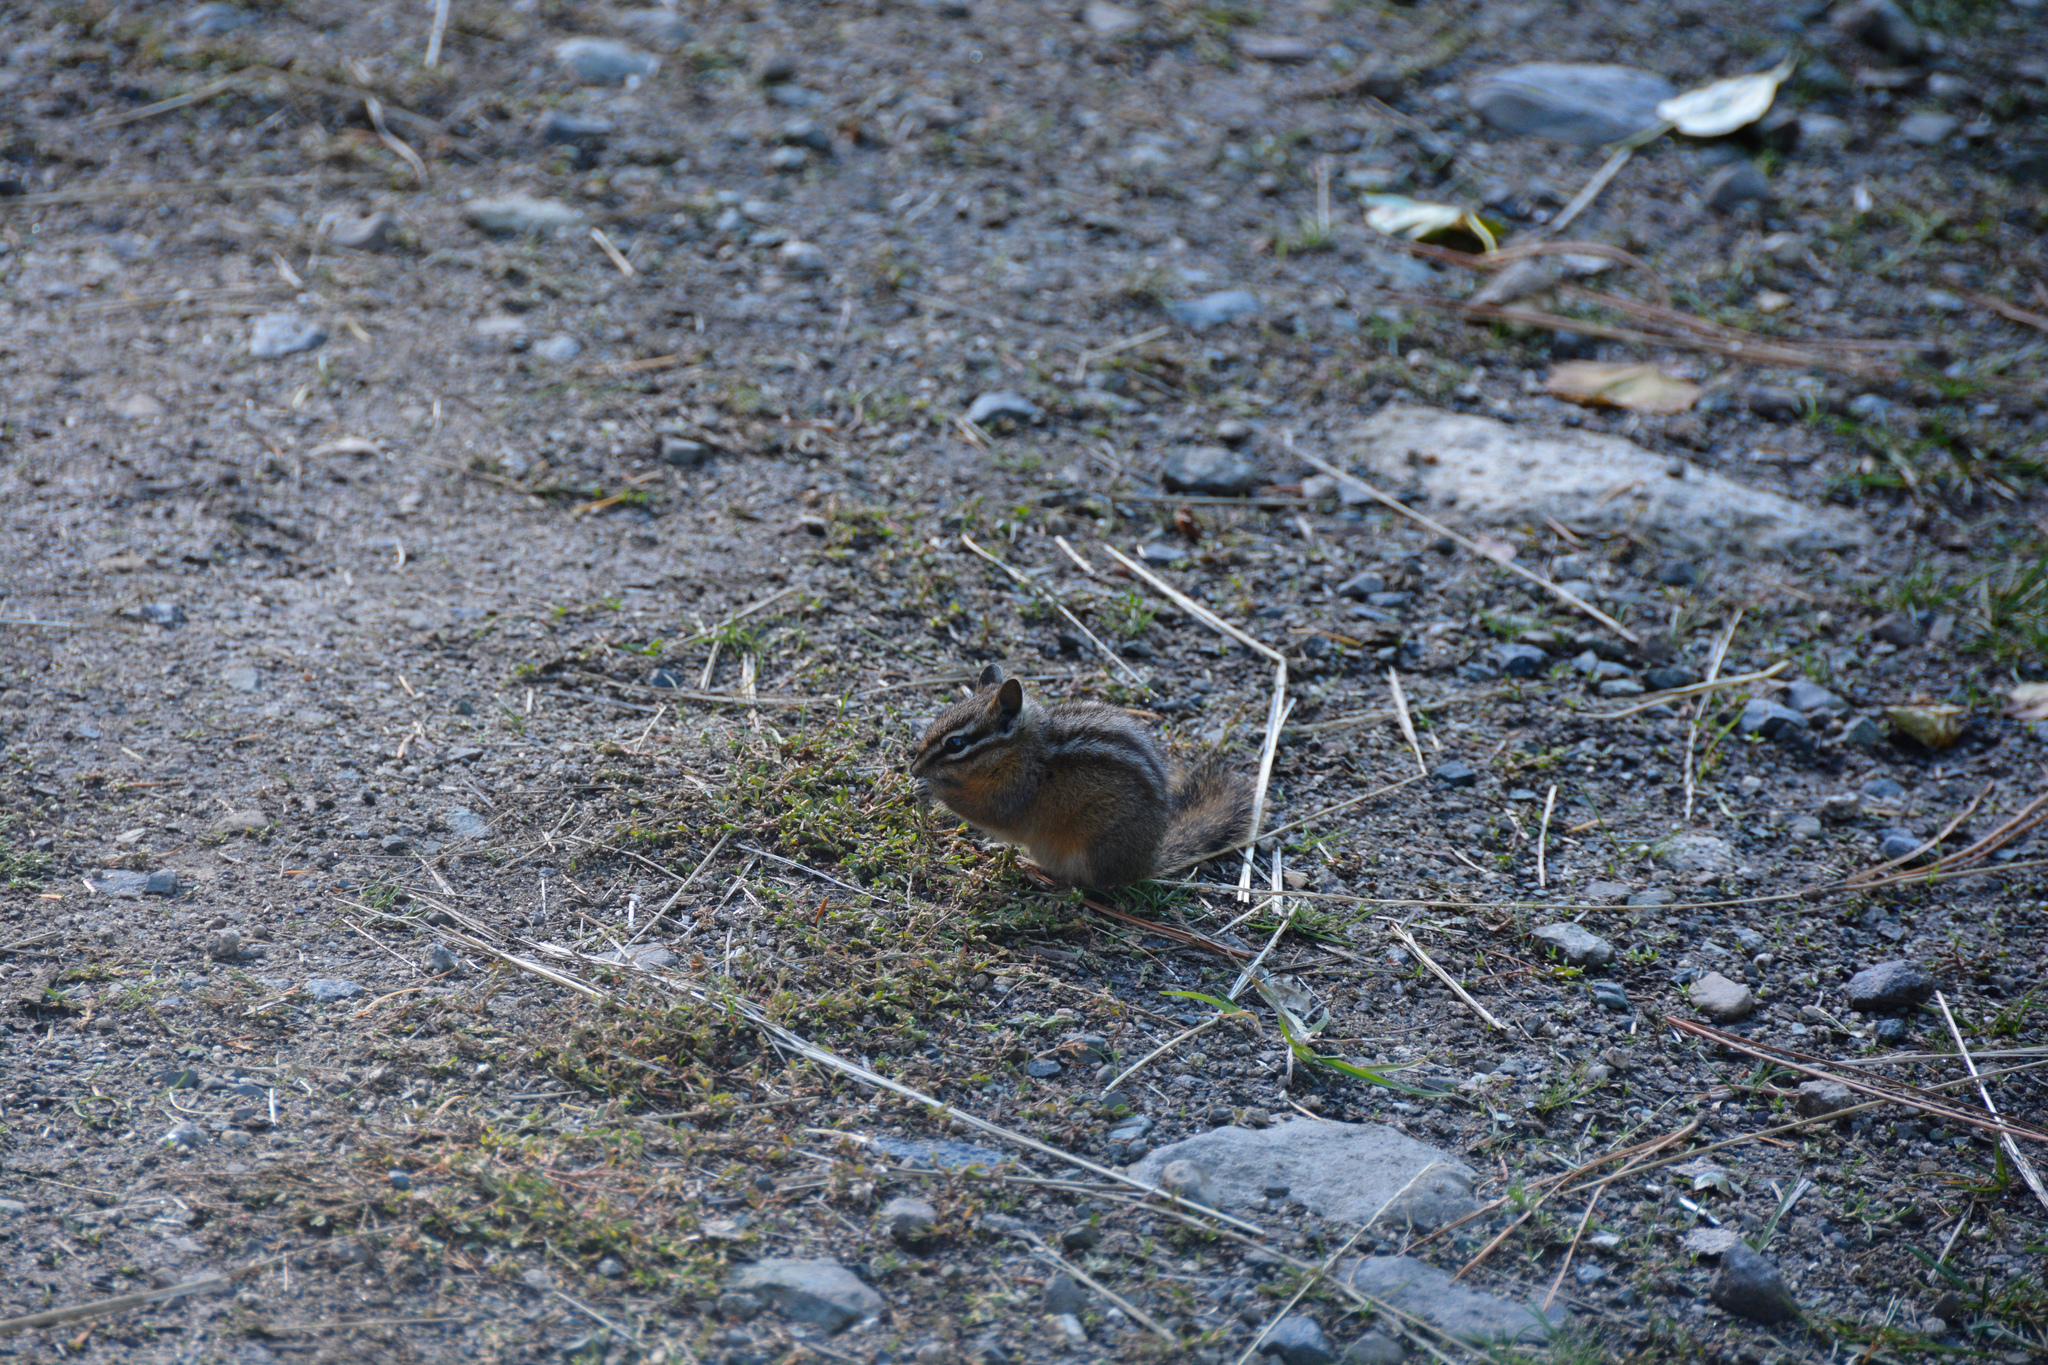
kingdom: Animalia
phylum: Chordata
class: Mammalia
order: Rodentia
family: Sciuridae
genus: Tamias
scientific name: Tamias amoenus
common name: Yellow-pine chipmunk
